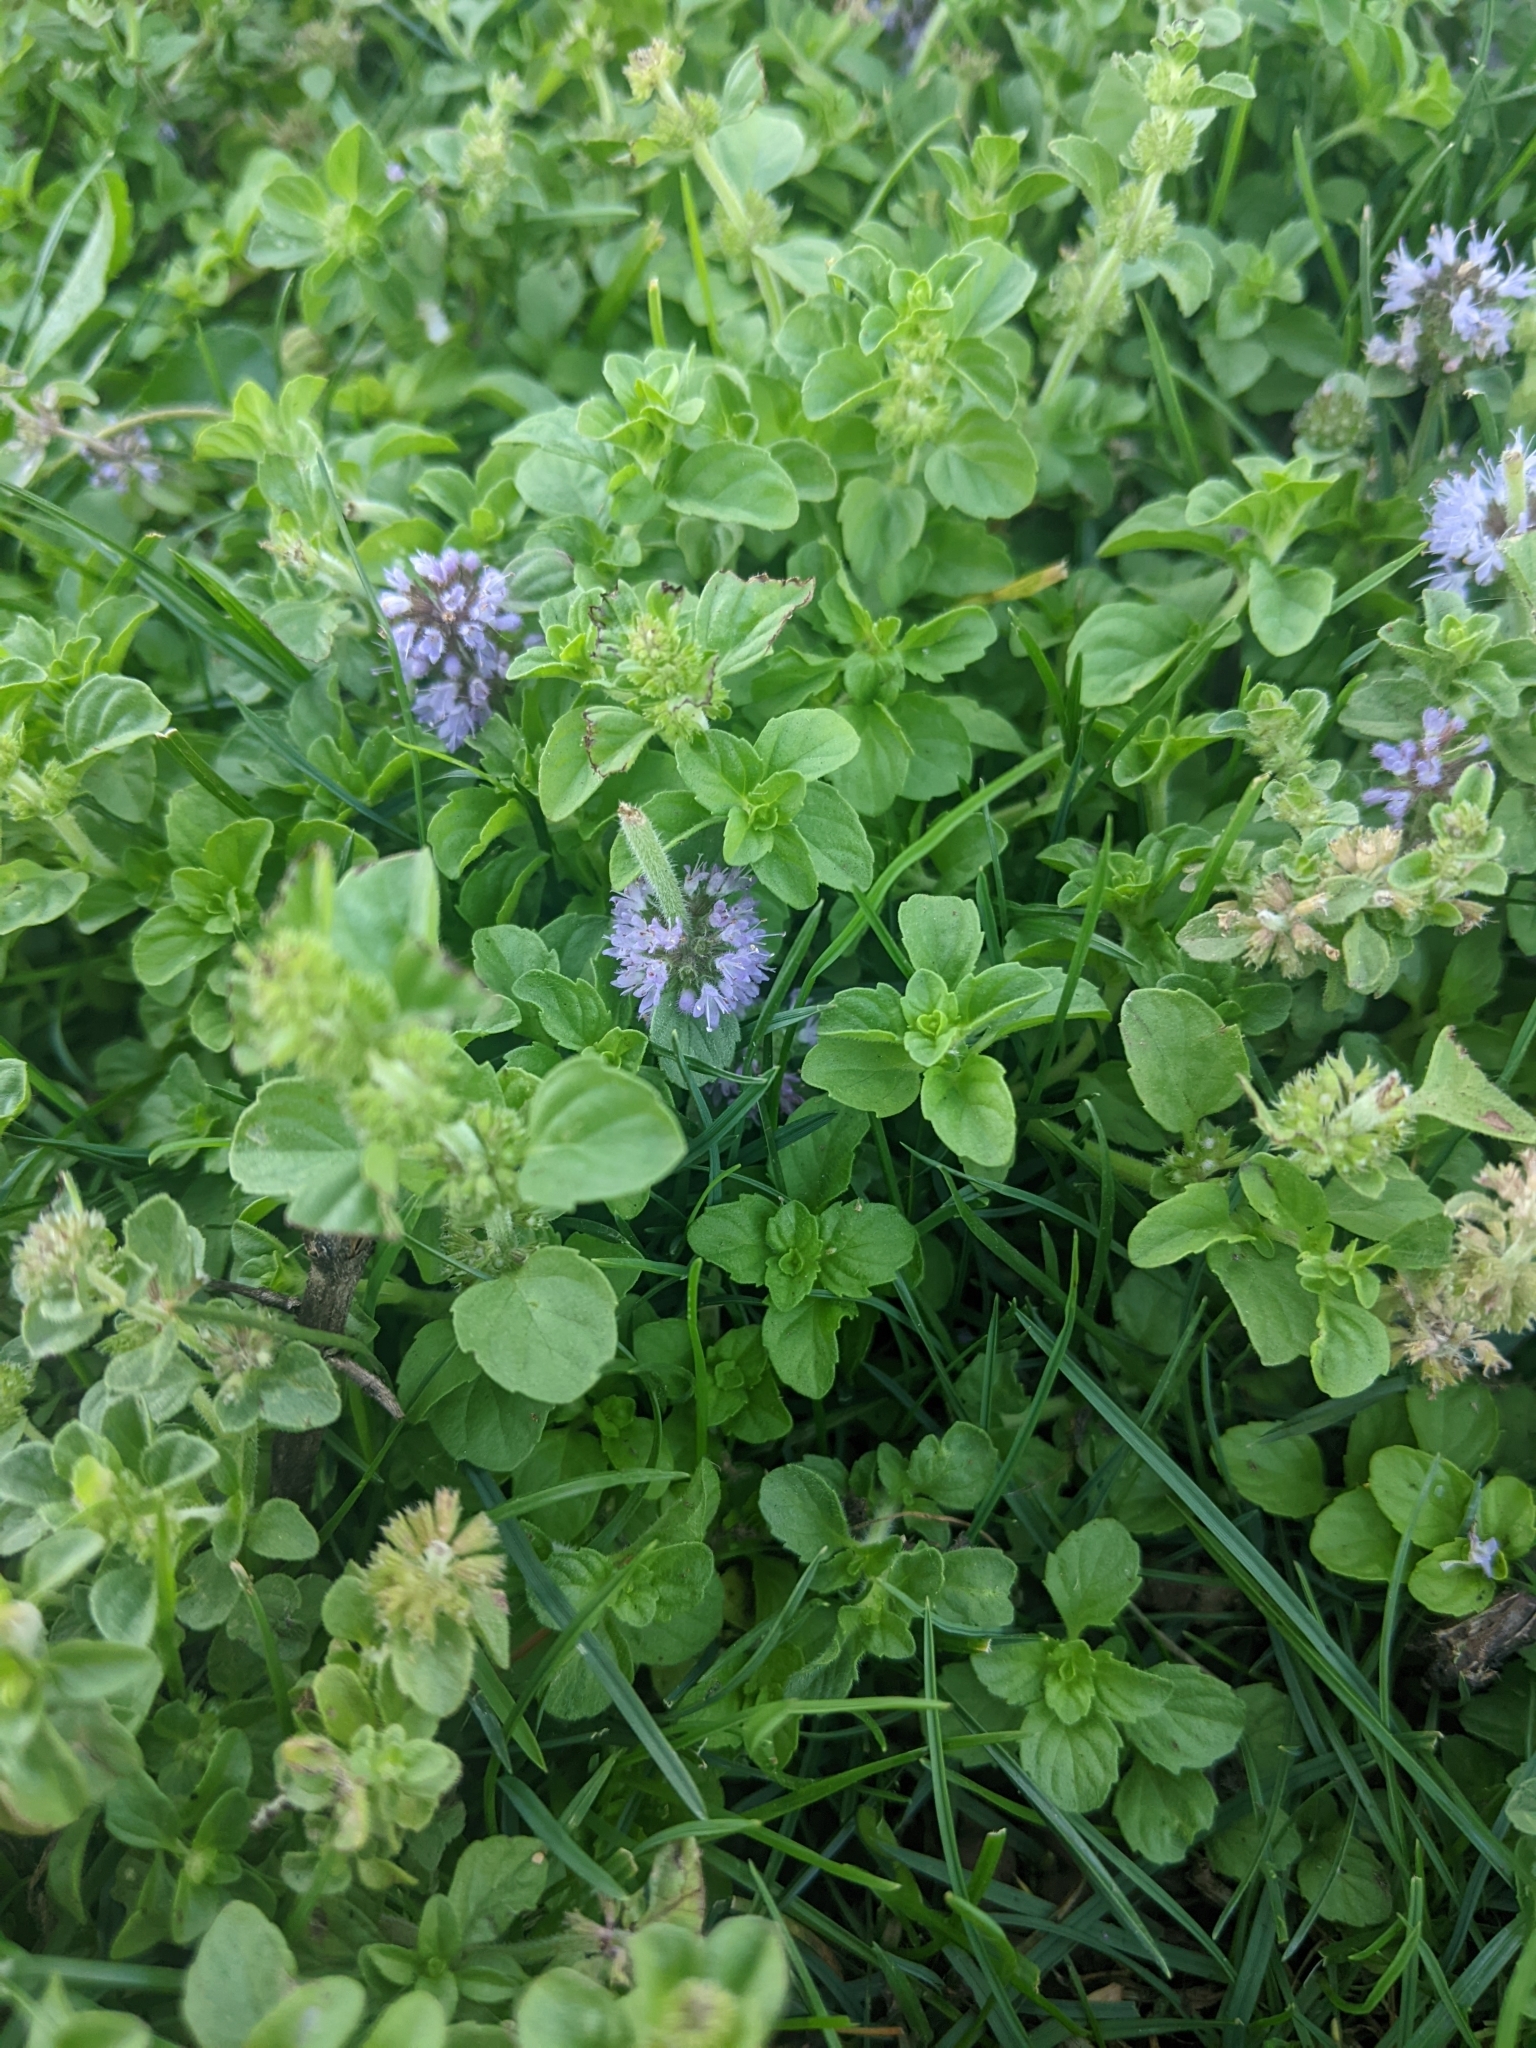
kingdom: Plantae
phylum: Tracheophyta
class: Magnoliopsida
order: Lamiales
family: Lamiaceae
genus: Mentha
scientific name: Mentha pulegium
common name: Pennyroyal
